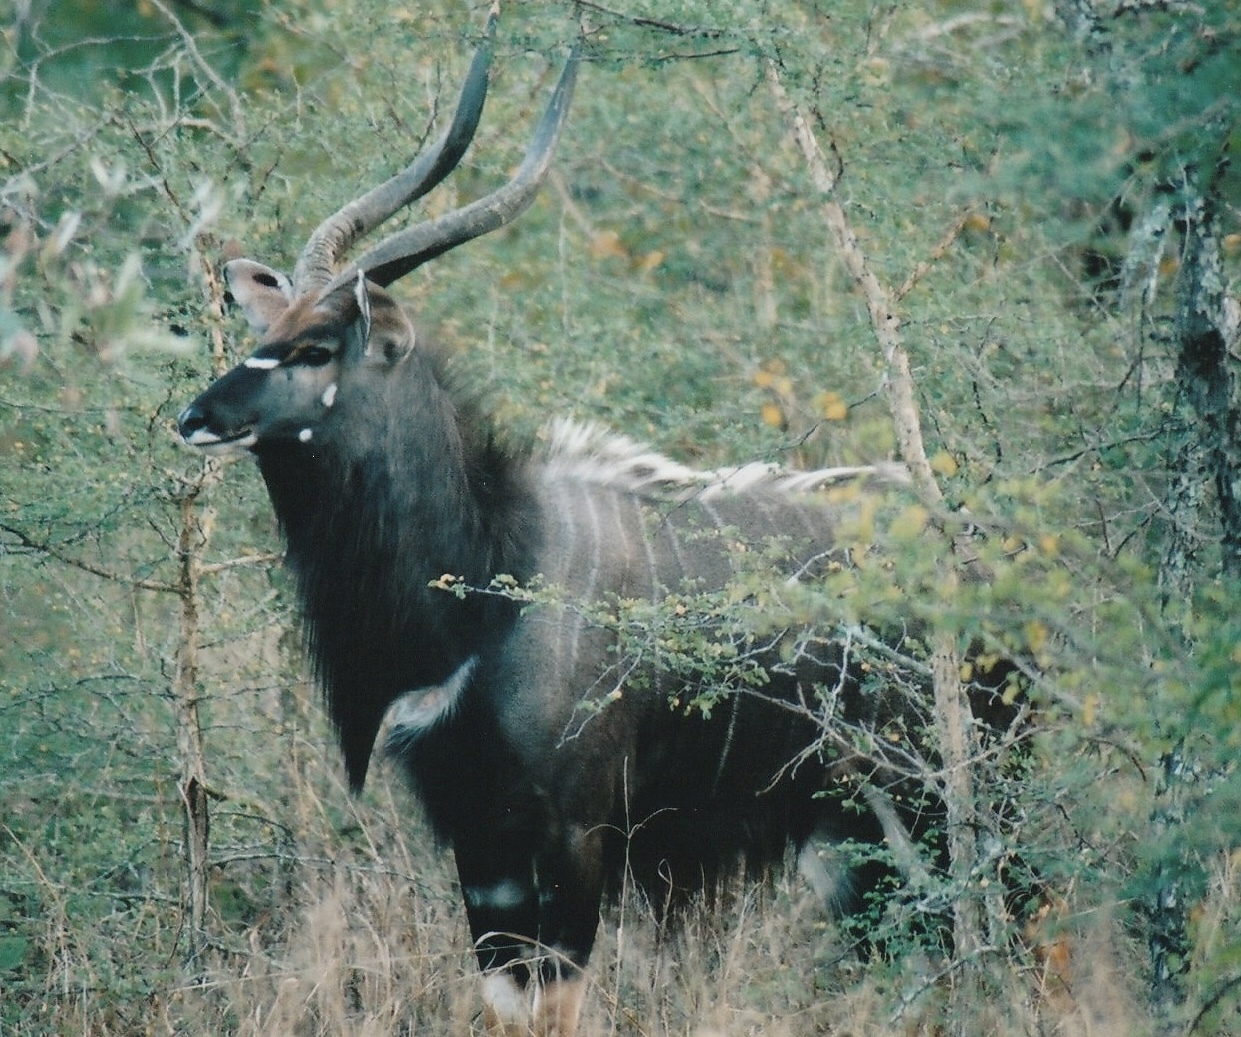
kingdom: Animalia
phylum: Chordata
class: Mammalia
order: Artiodactyla
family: Bovidae
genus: Tragelaphus
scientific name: Tragelaphus angasii
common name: Nyala
